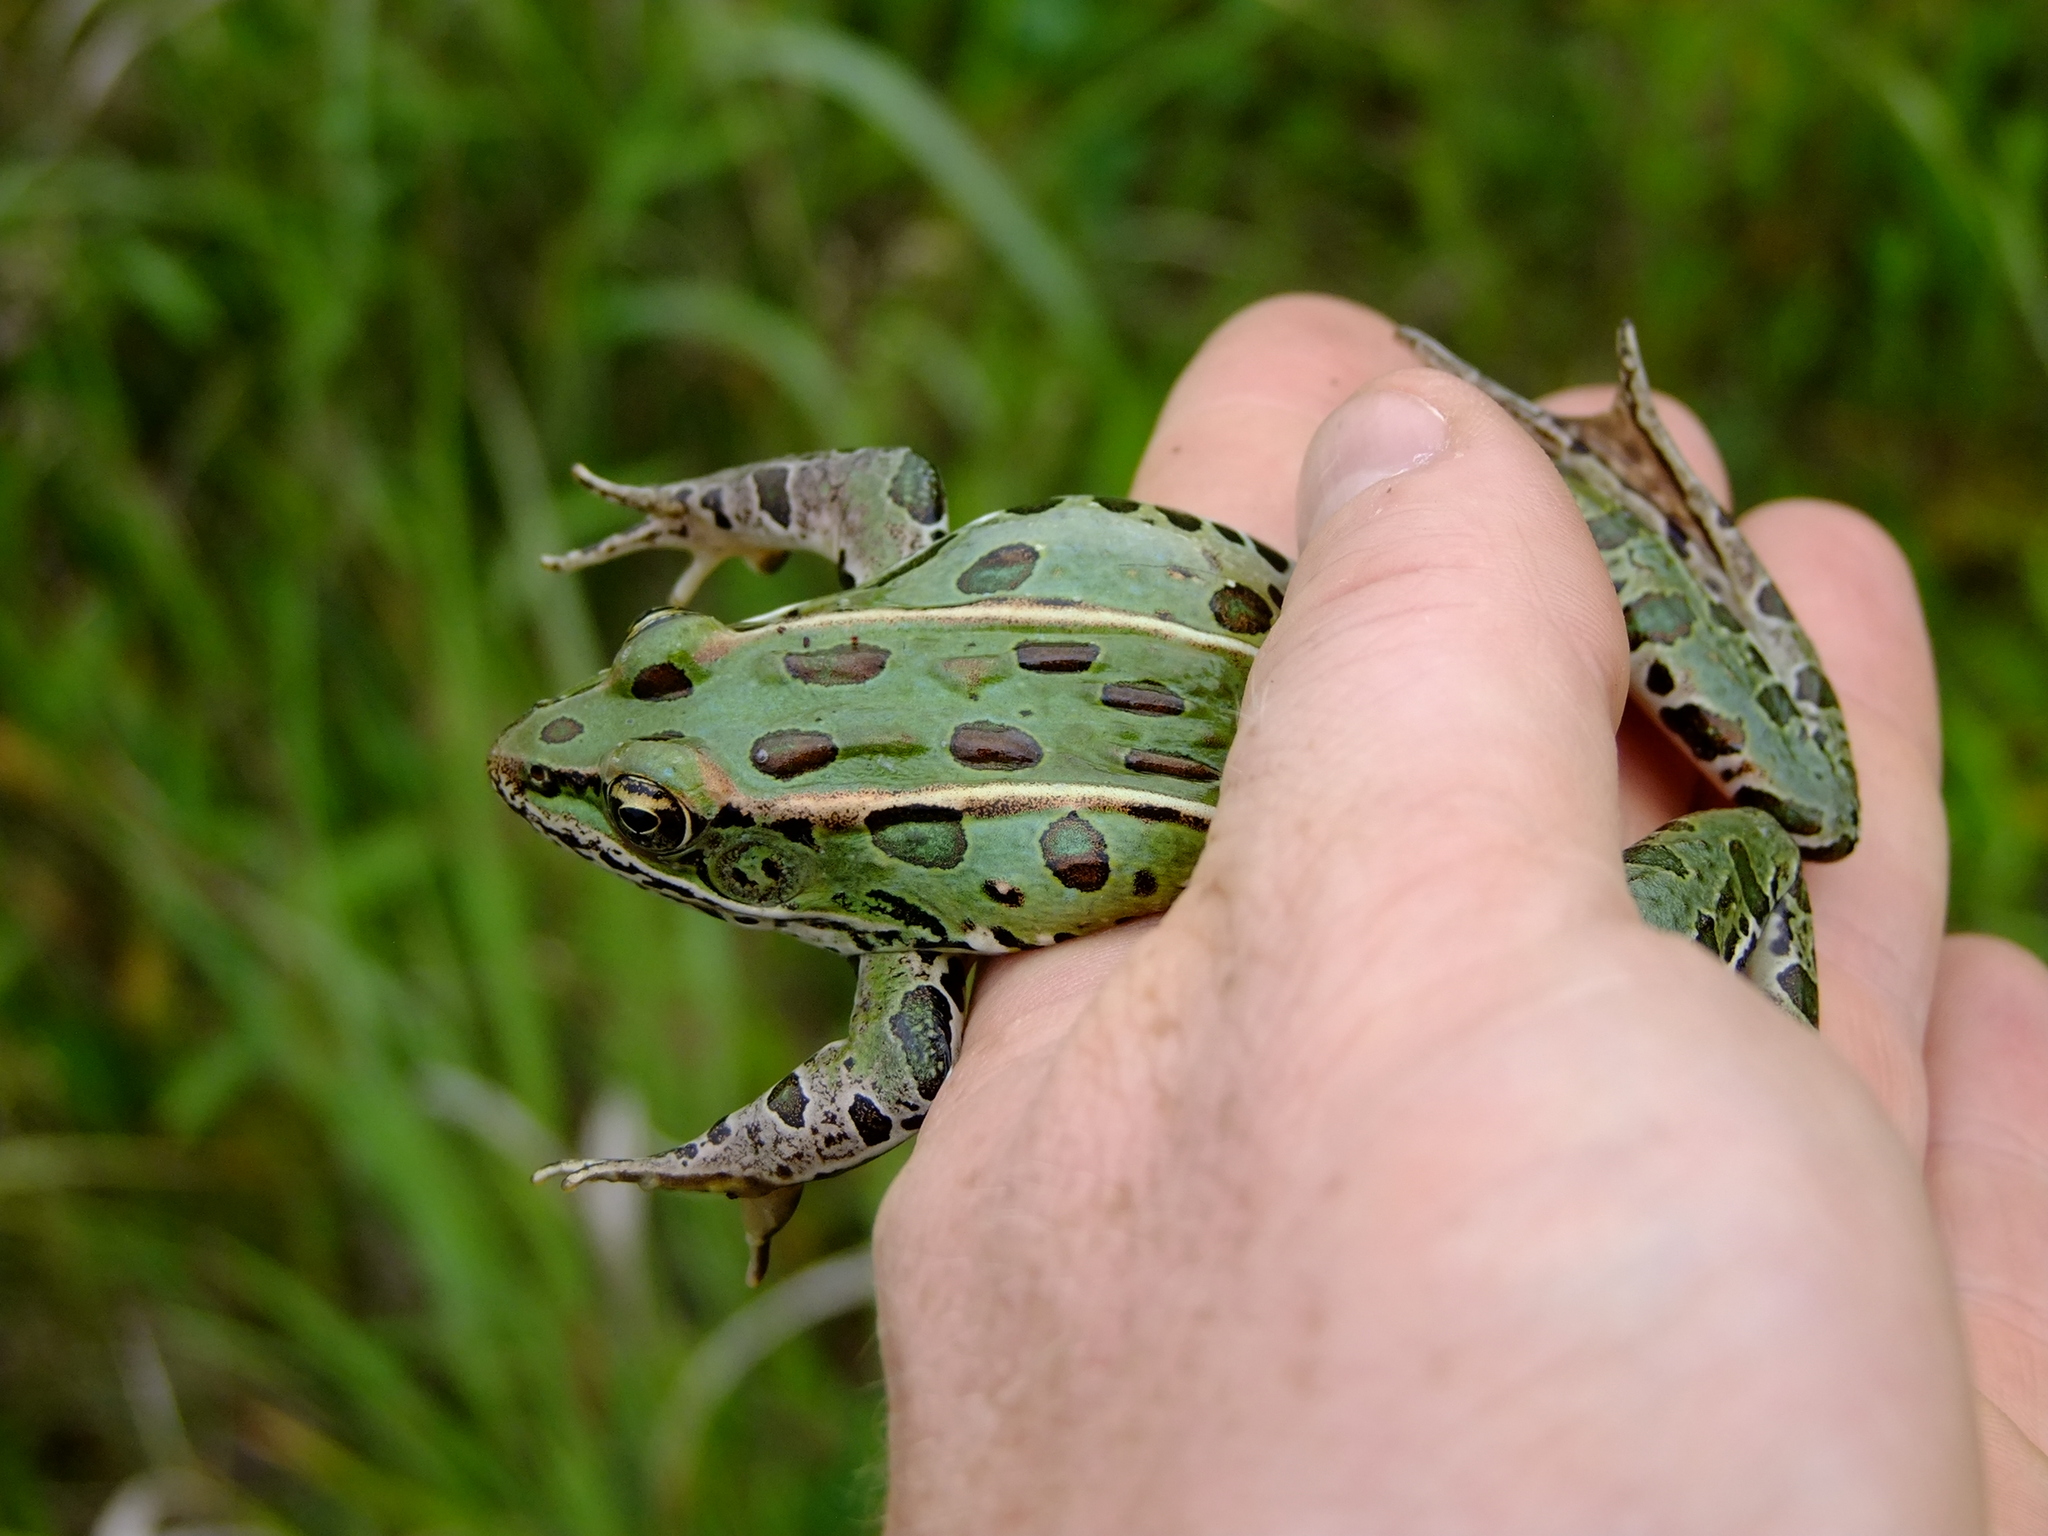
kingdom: Animalia
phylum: Chordata
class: Amphibia
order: Anura
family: Ranidae
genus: Lithobates
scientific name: Lithobates pipiens
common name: Northern leopard frog
